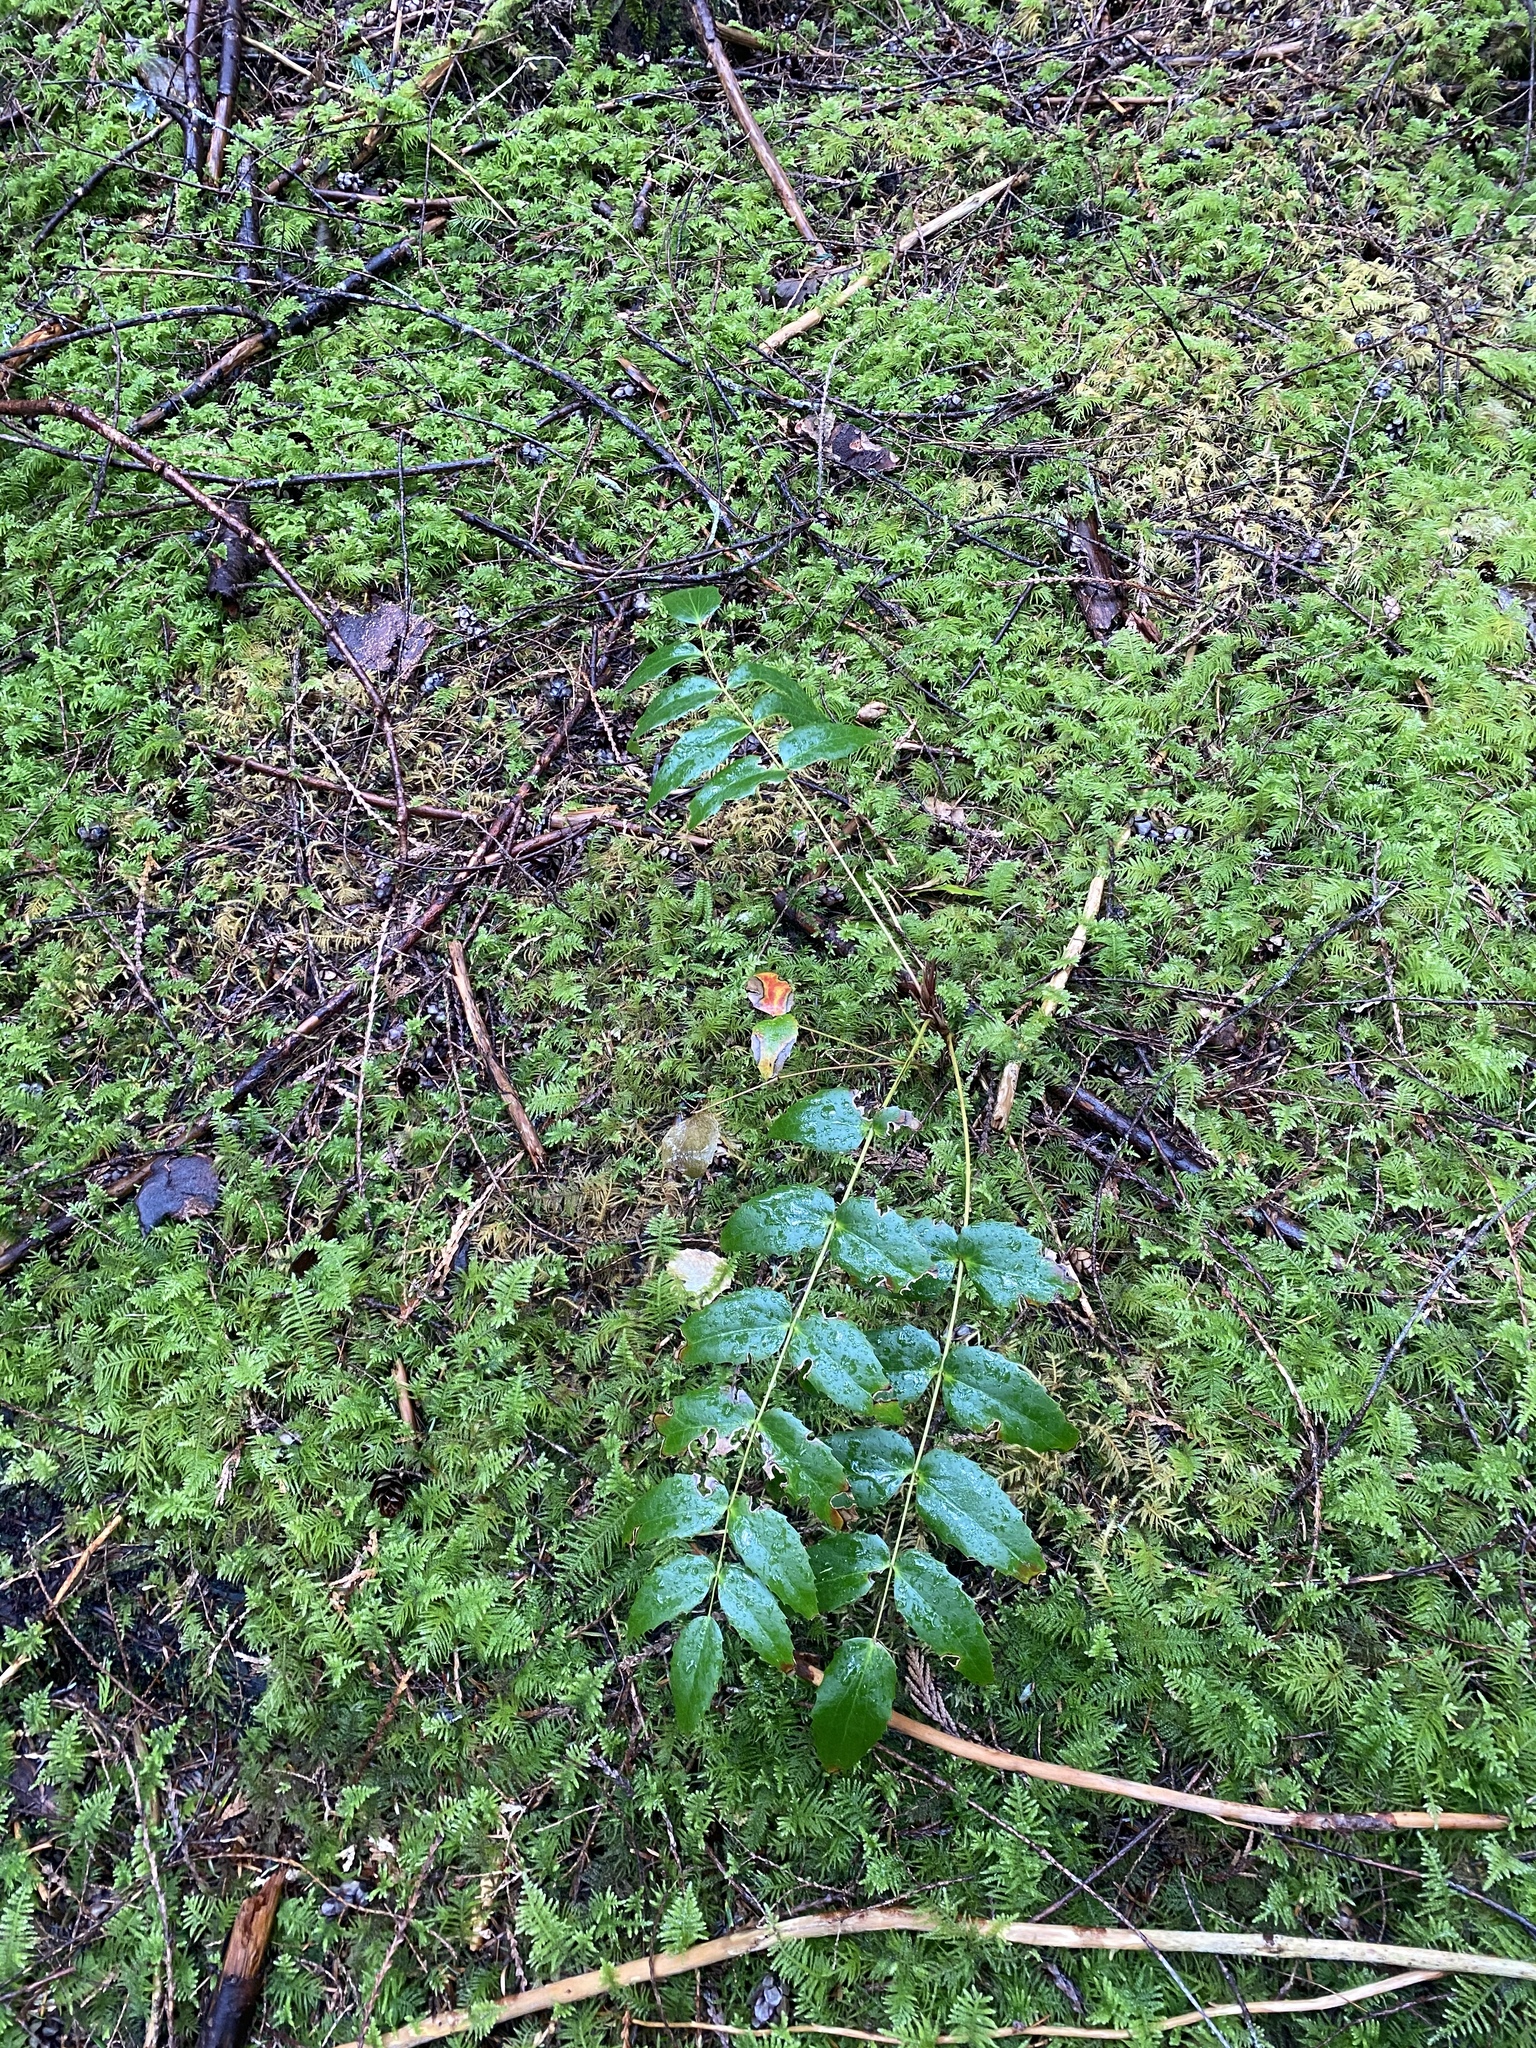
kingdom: Plantae
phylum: Tracheophyta
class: Magnoliopsida
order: Ranunculales
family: Berberidaceae
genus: Mahonia
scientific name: Mahonia nervosa
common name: Cascade oregon-grape
